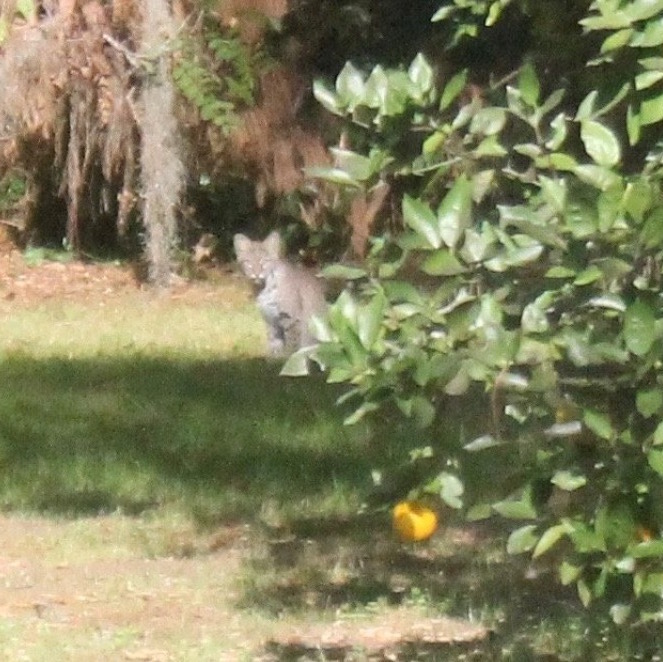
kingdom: Animalia
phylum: Chordata
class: Mammalia
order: Carnivora
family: Felidae
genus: Lynx
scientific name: Lynx rufus
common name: Bobcat
